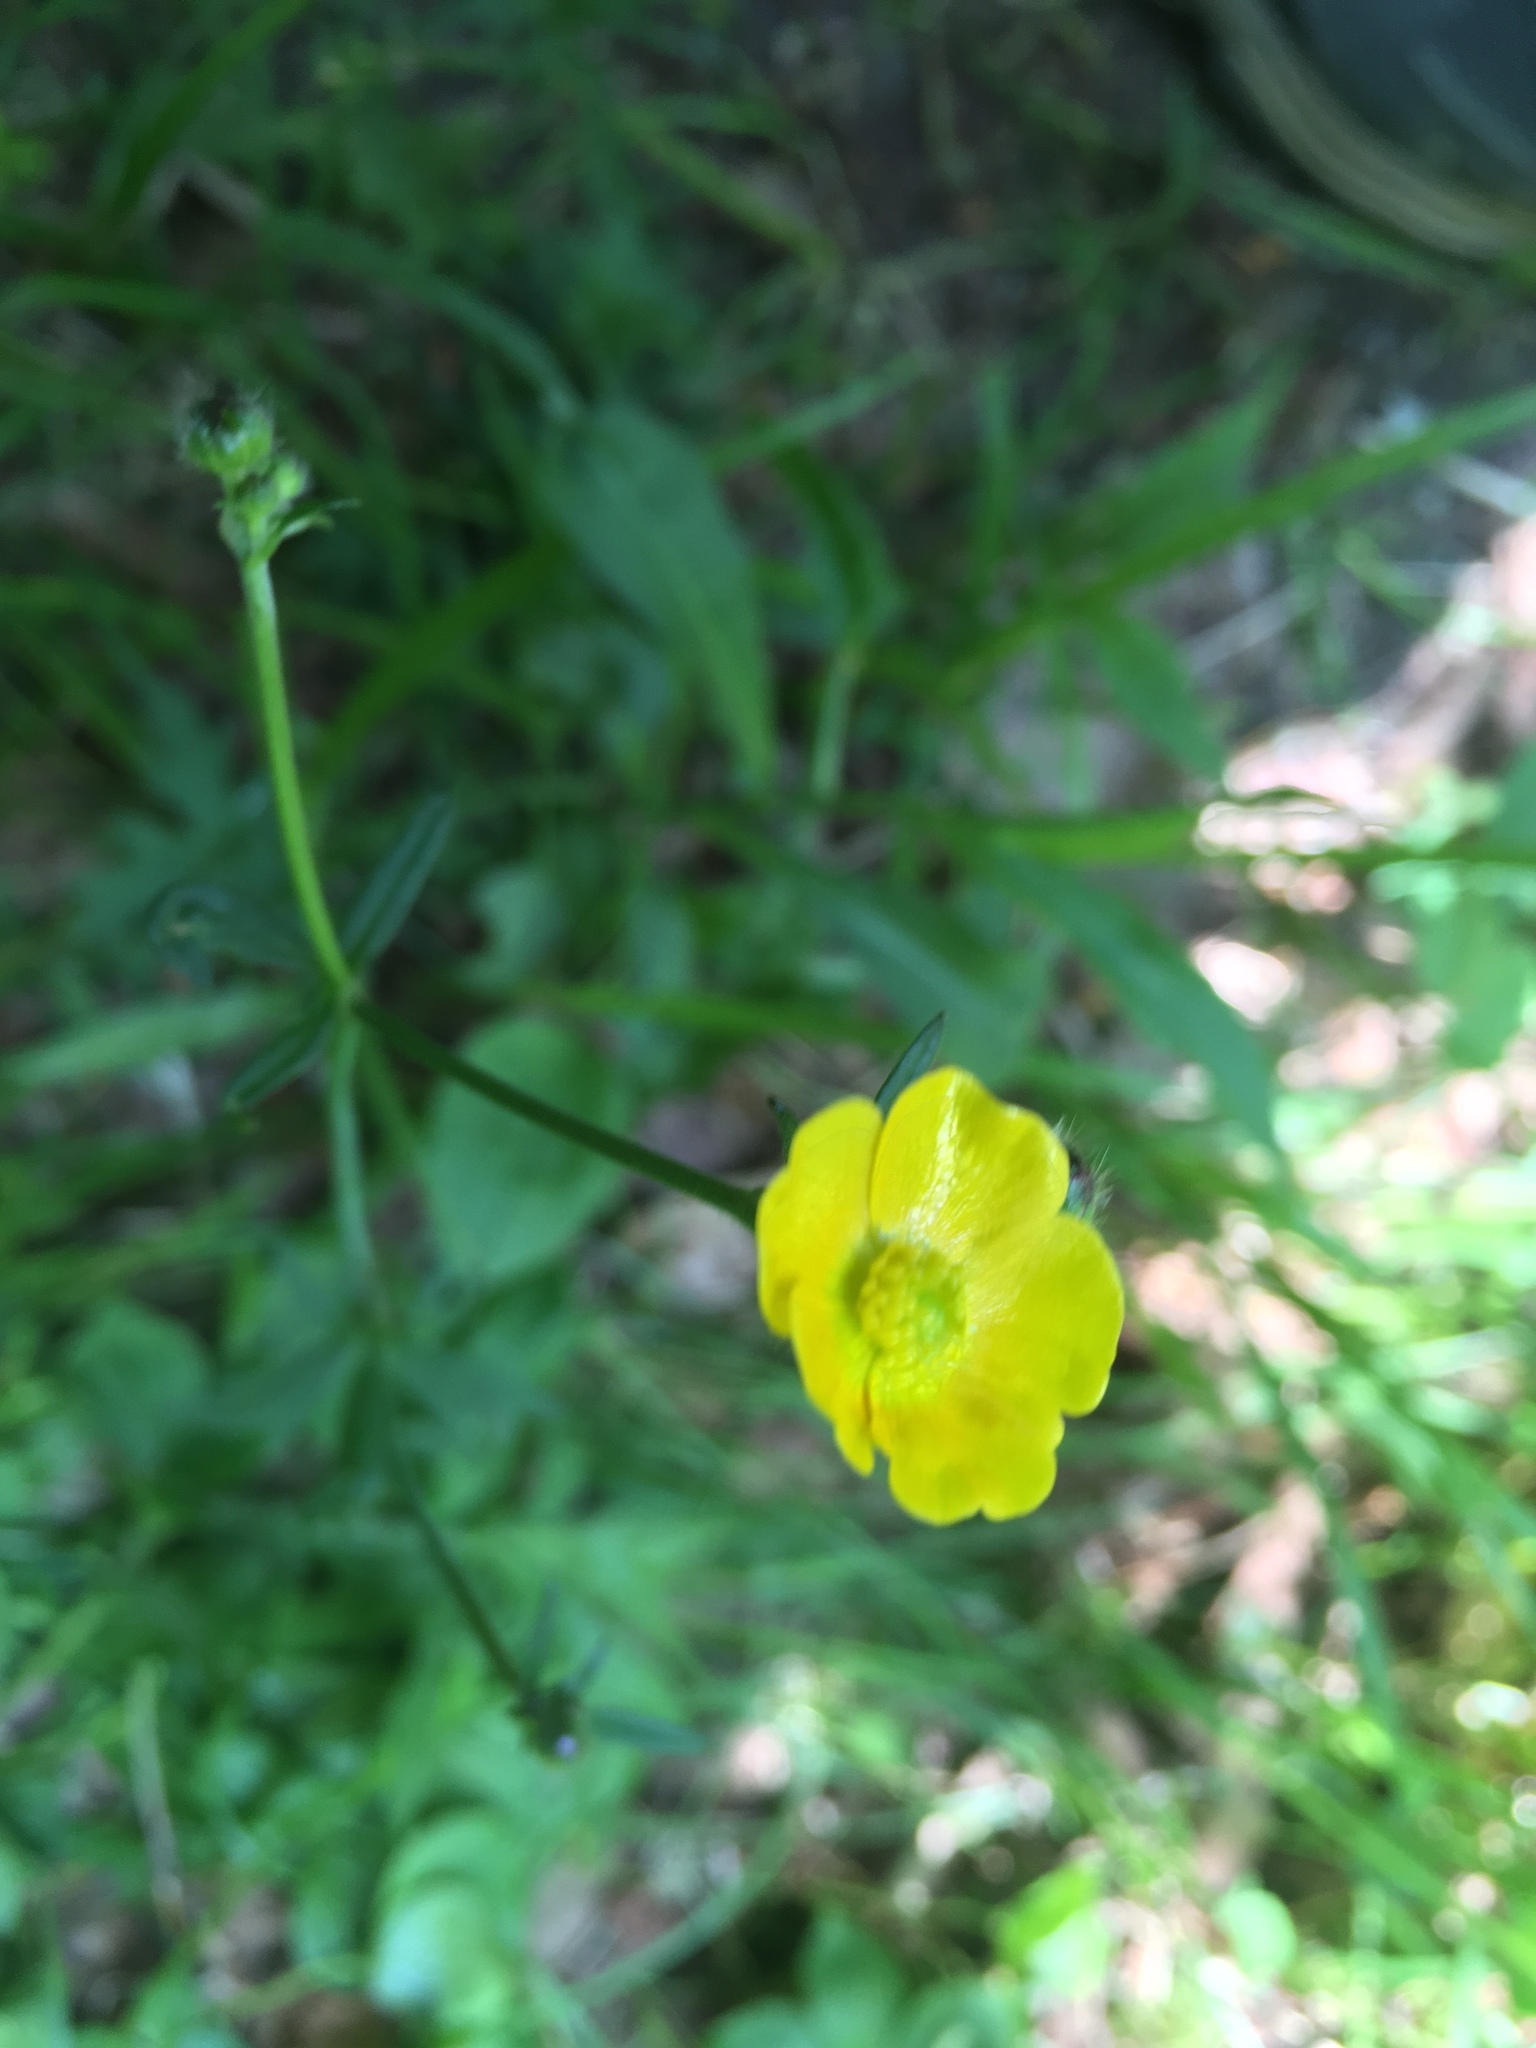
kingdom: Plantae
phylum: Tracheophyta
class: Magnoliopsida
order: Ranunculales
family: Ranunculaceae
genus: Ranunculus
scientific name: Ranunculus acris
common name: Meadow buttercup
